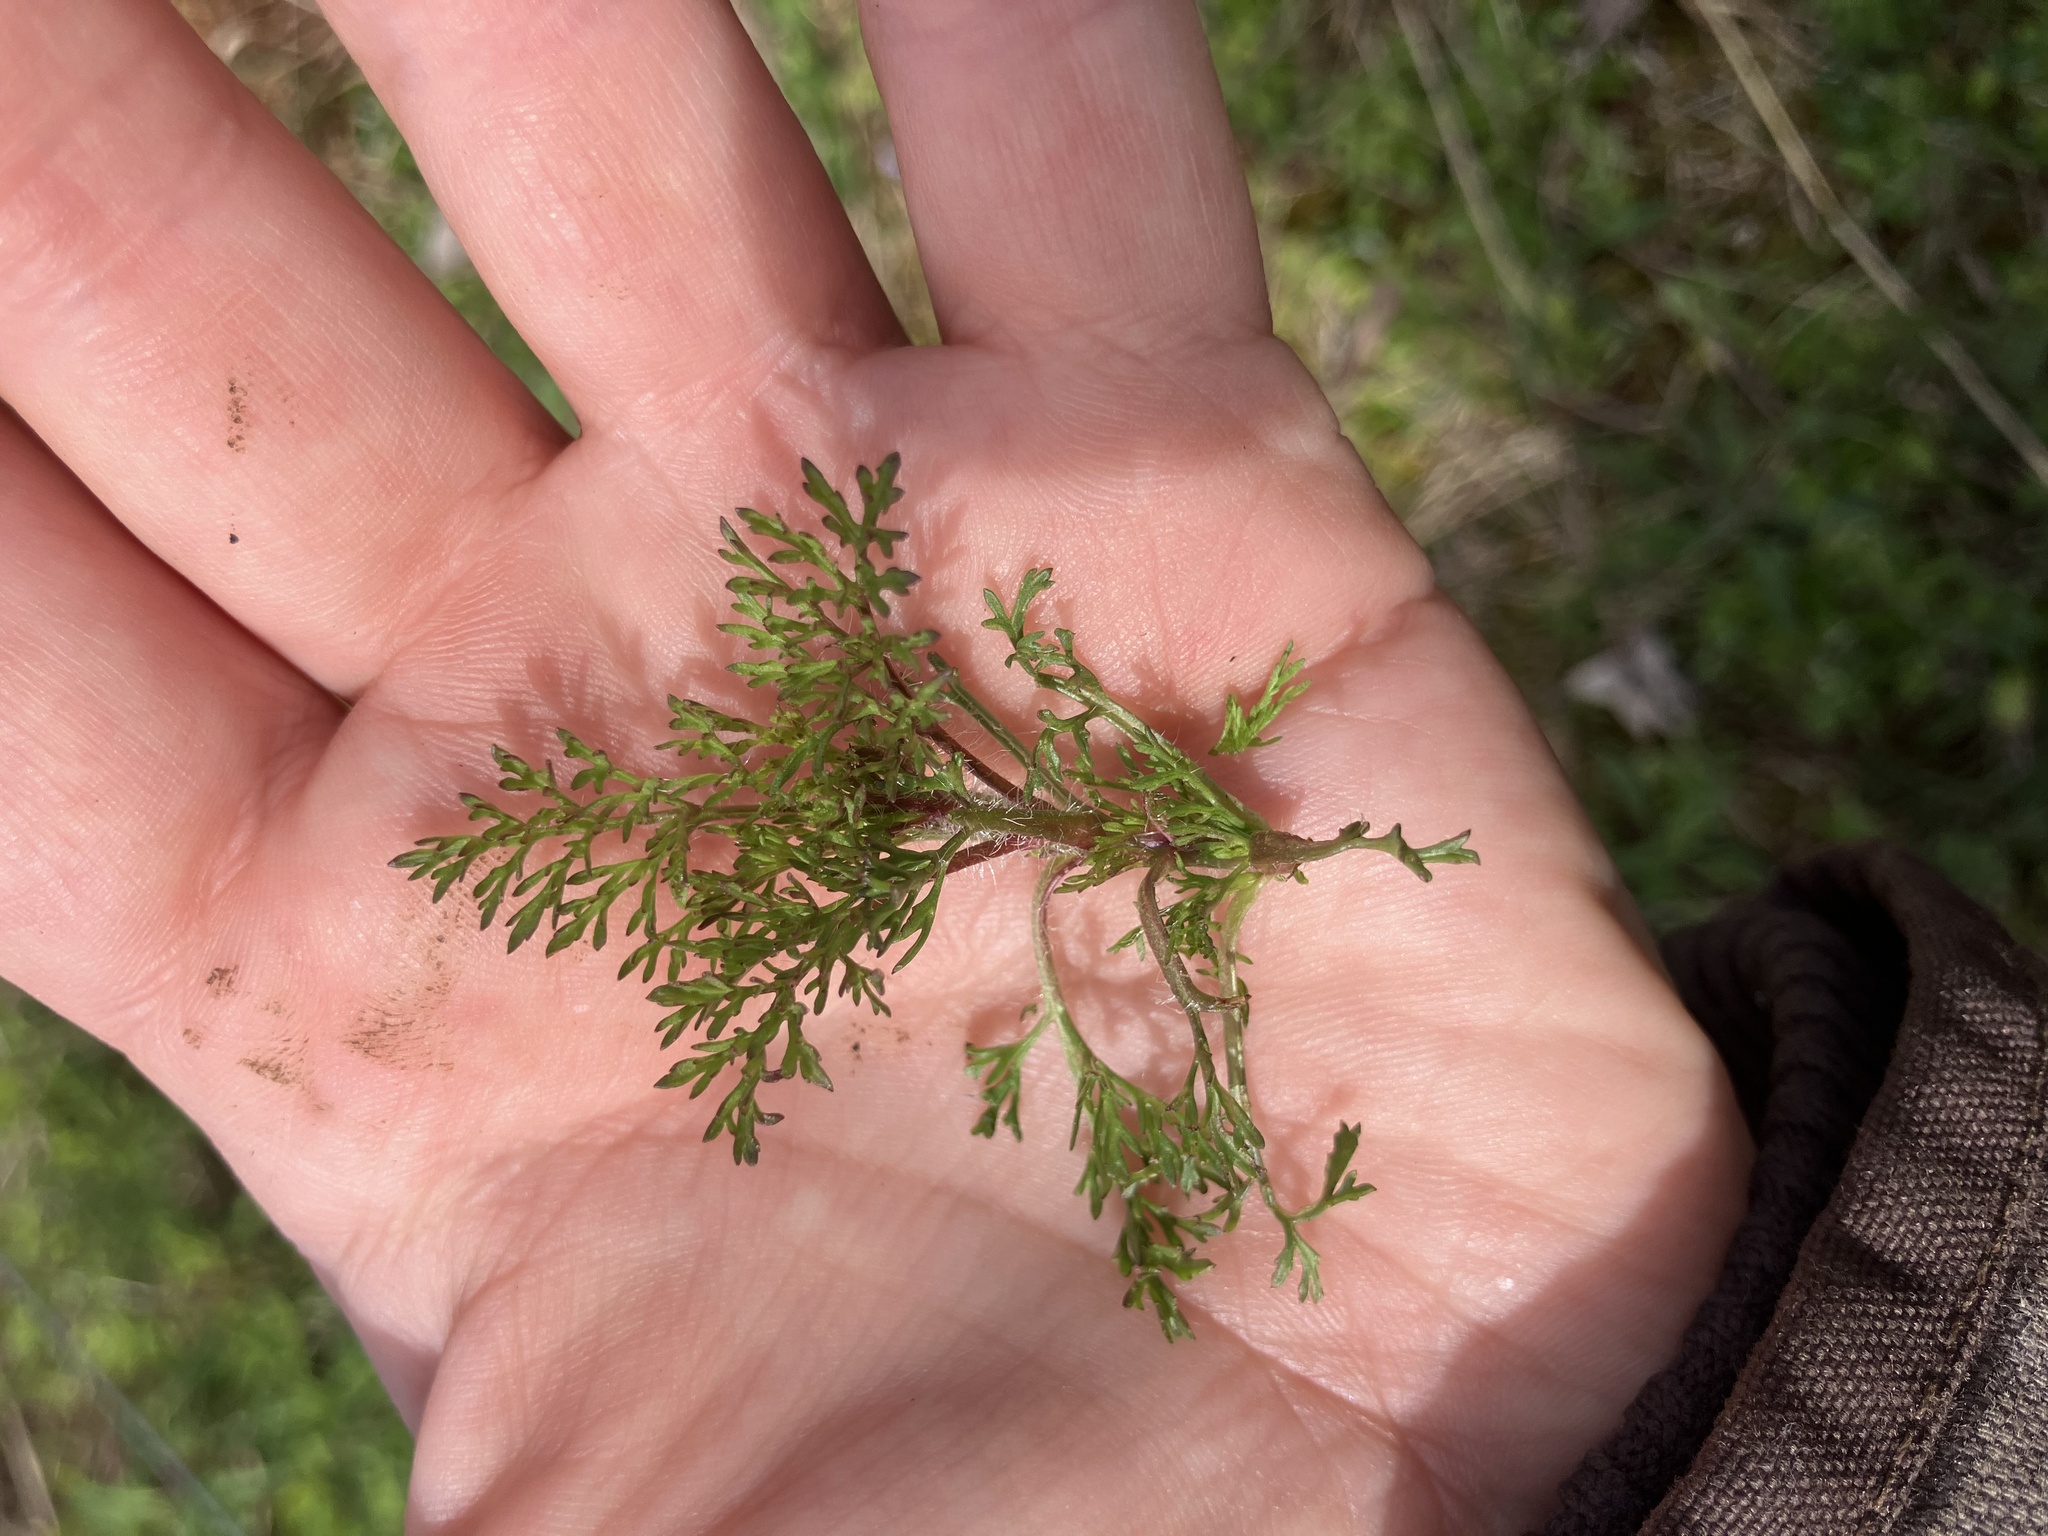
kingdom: Plantae
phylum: Tracheophyta
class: Magnoliopsida
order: Asterales
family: Asteraceae
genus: Eupatorium
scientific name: Eupatorium capillifolium
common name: Dog-fennel
